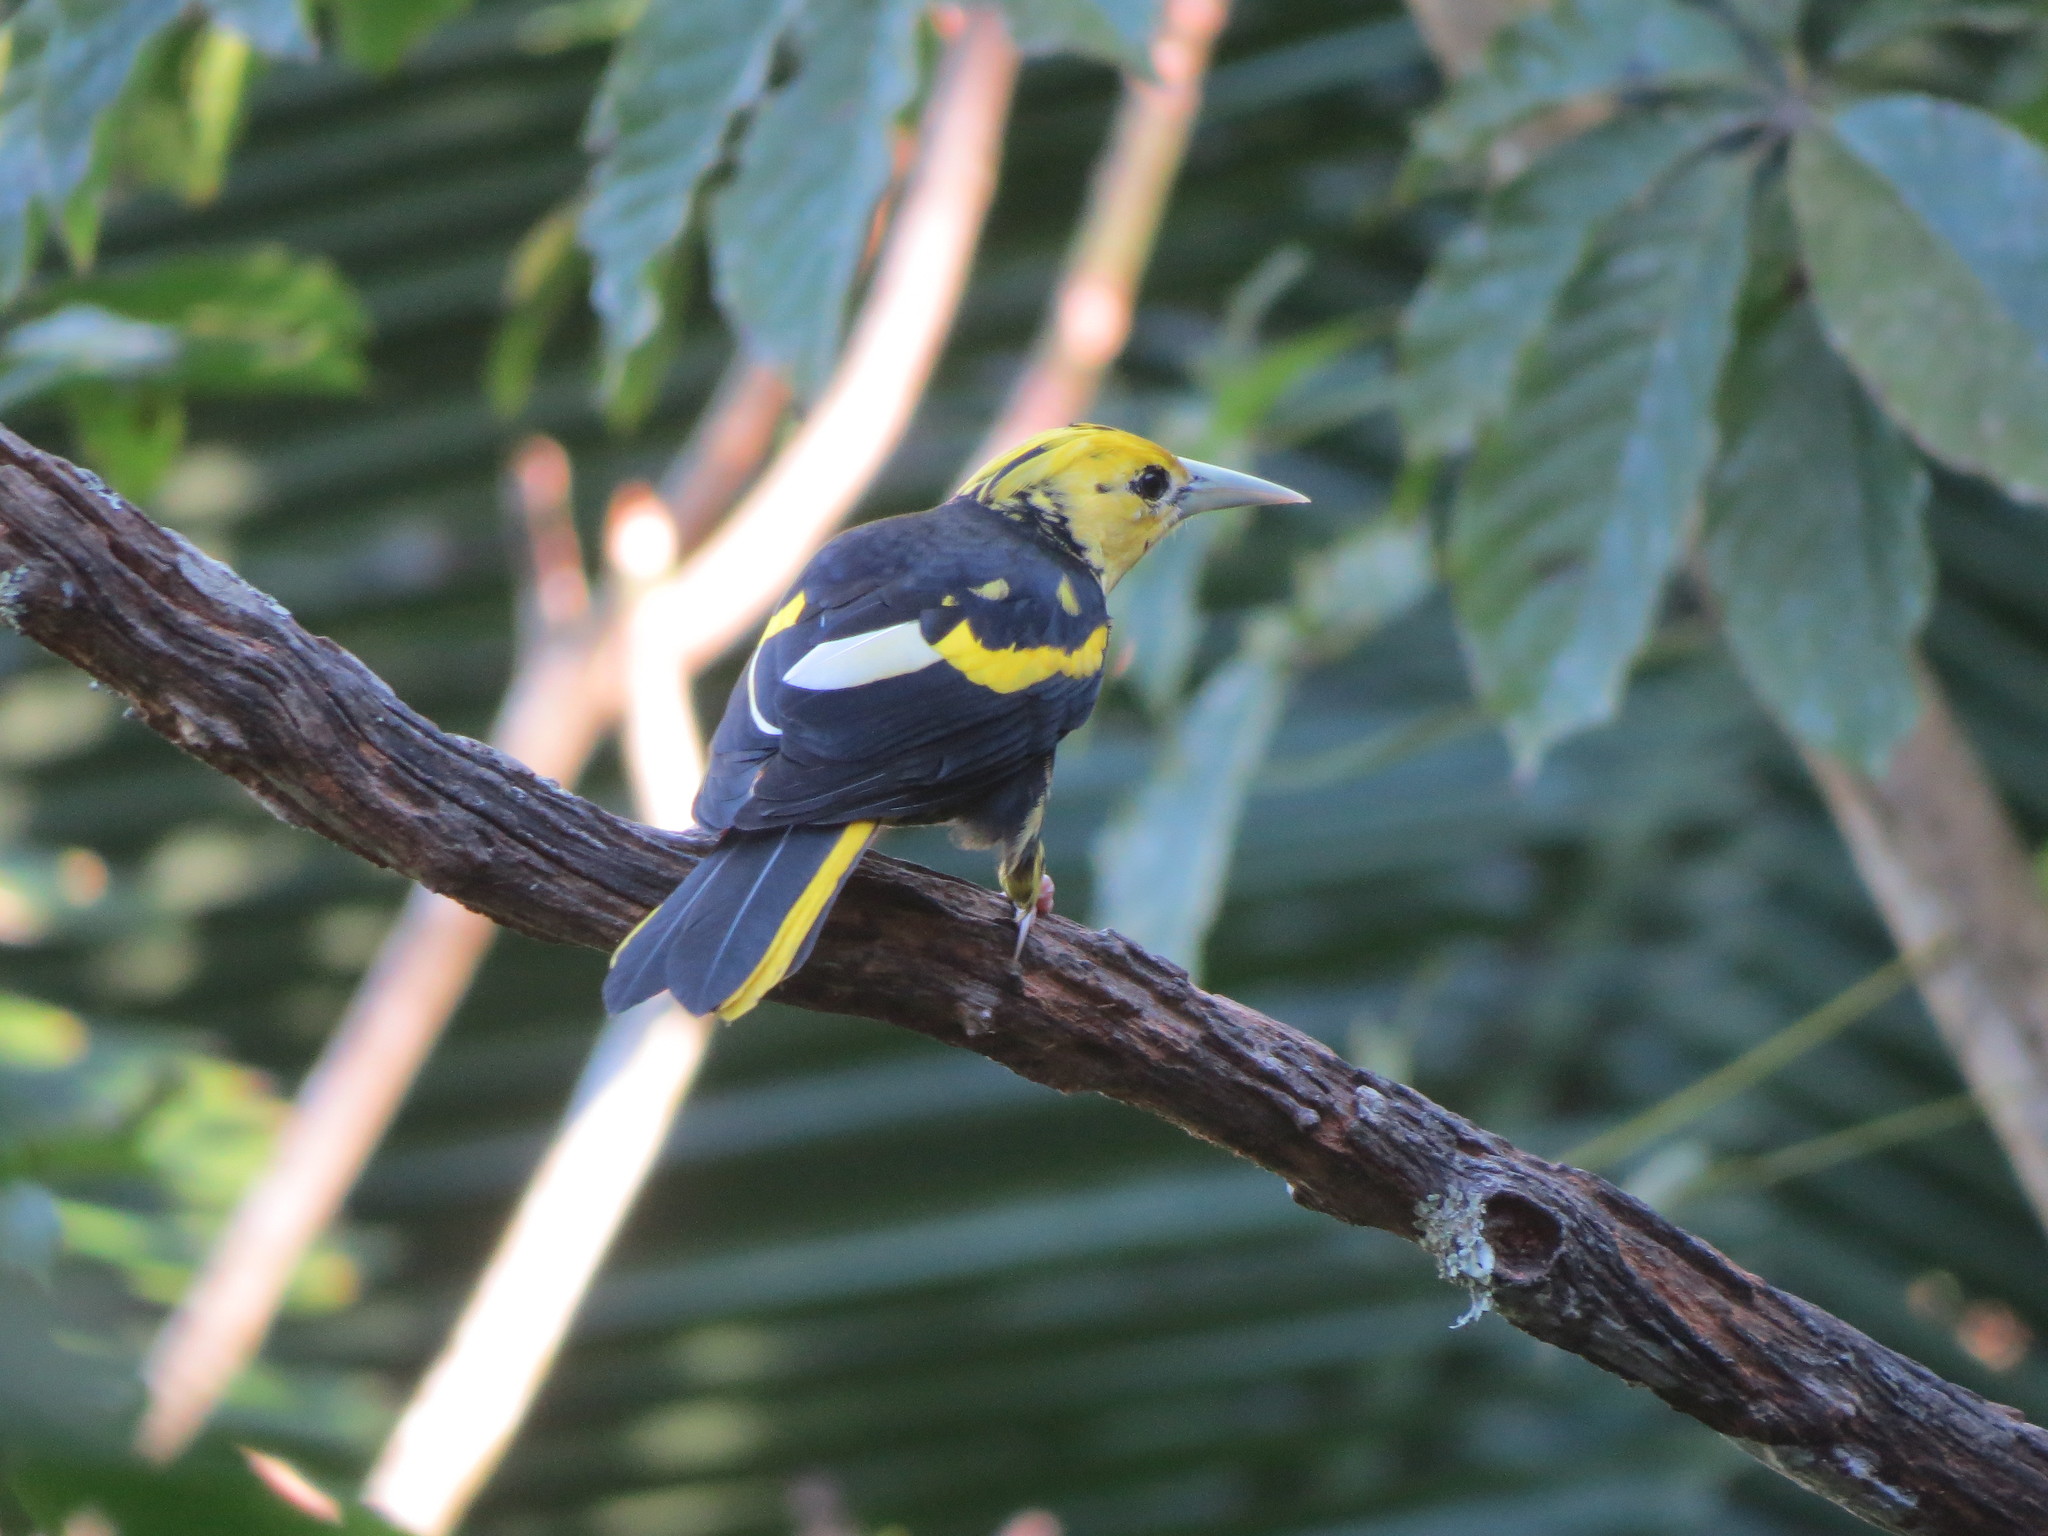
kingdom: Animalia
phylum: Chordata
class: Aves
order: Passeriformes
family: Icteridae
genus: Cacicus
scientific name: Cacicus melanicterus
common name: Yellow-winged cacique
